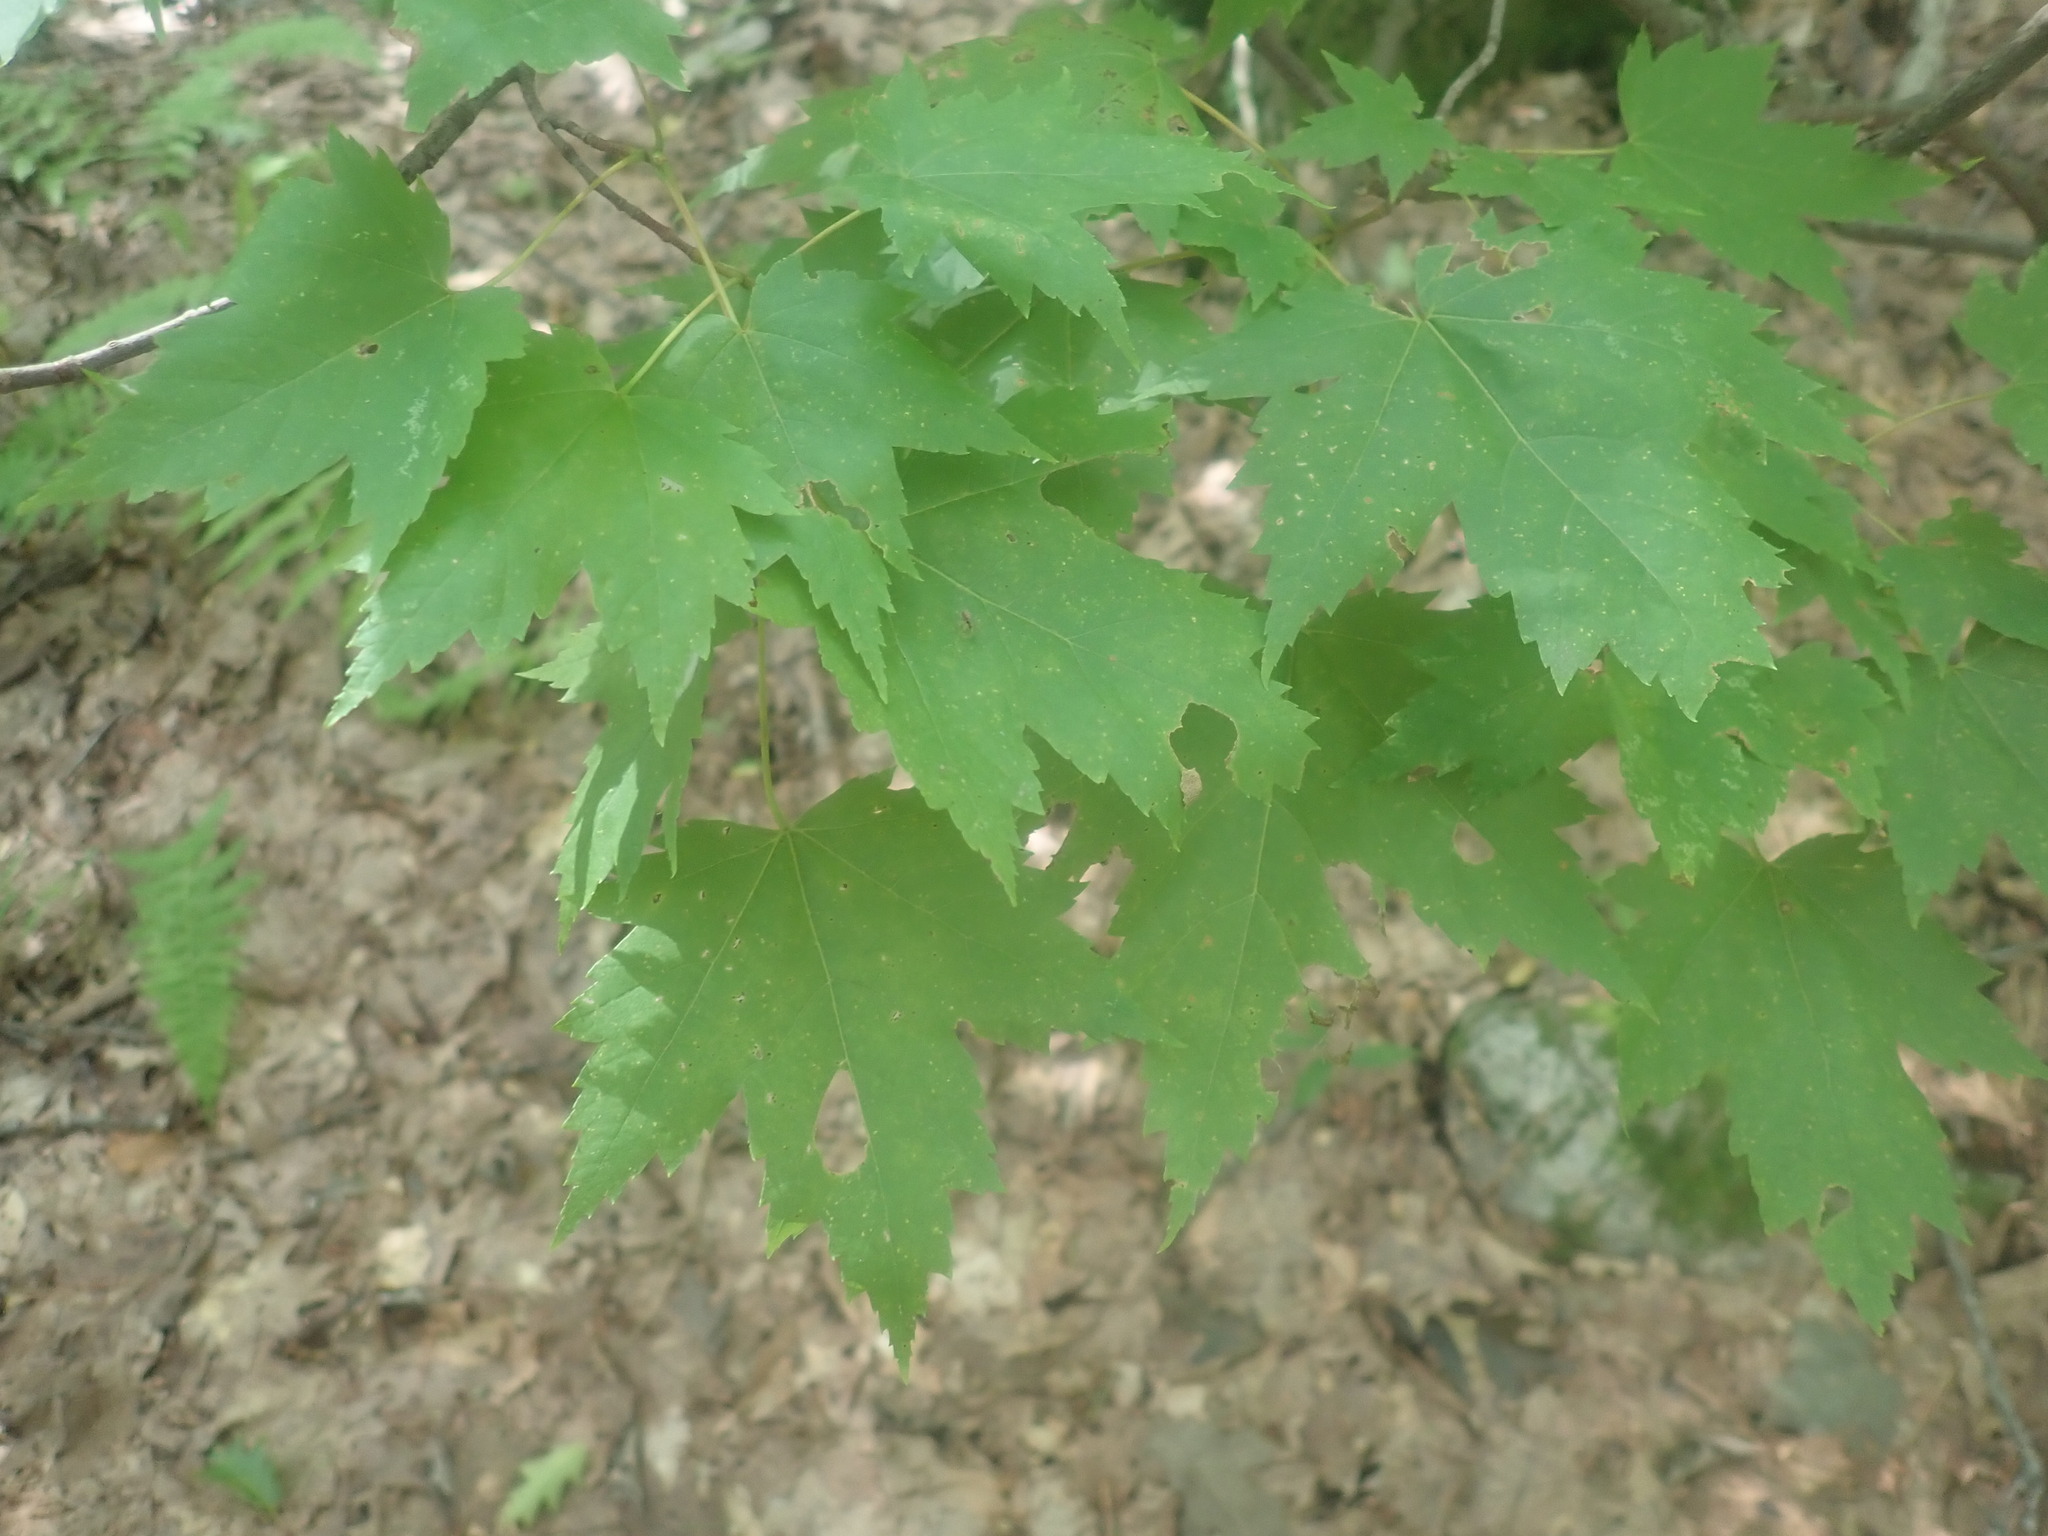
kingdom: Plantae
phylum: Tracheophyta
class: Magnoliopsida
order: Sapindales
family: Sapindaceae
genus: Acer
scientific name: Acer rubrum
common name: Red maple
